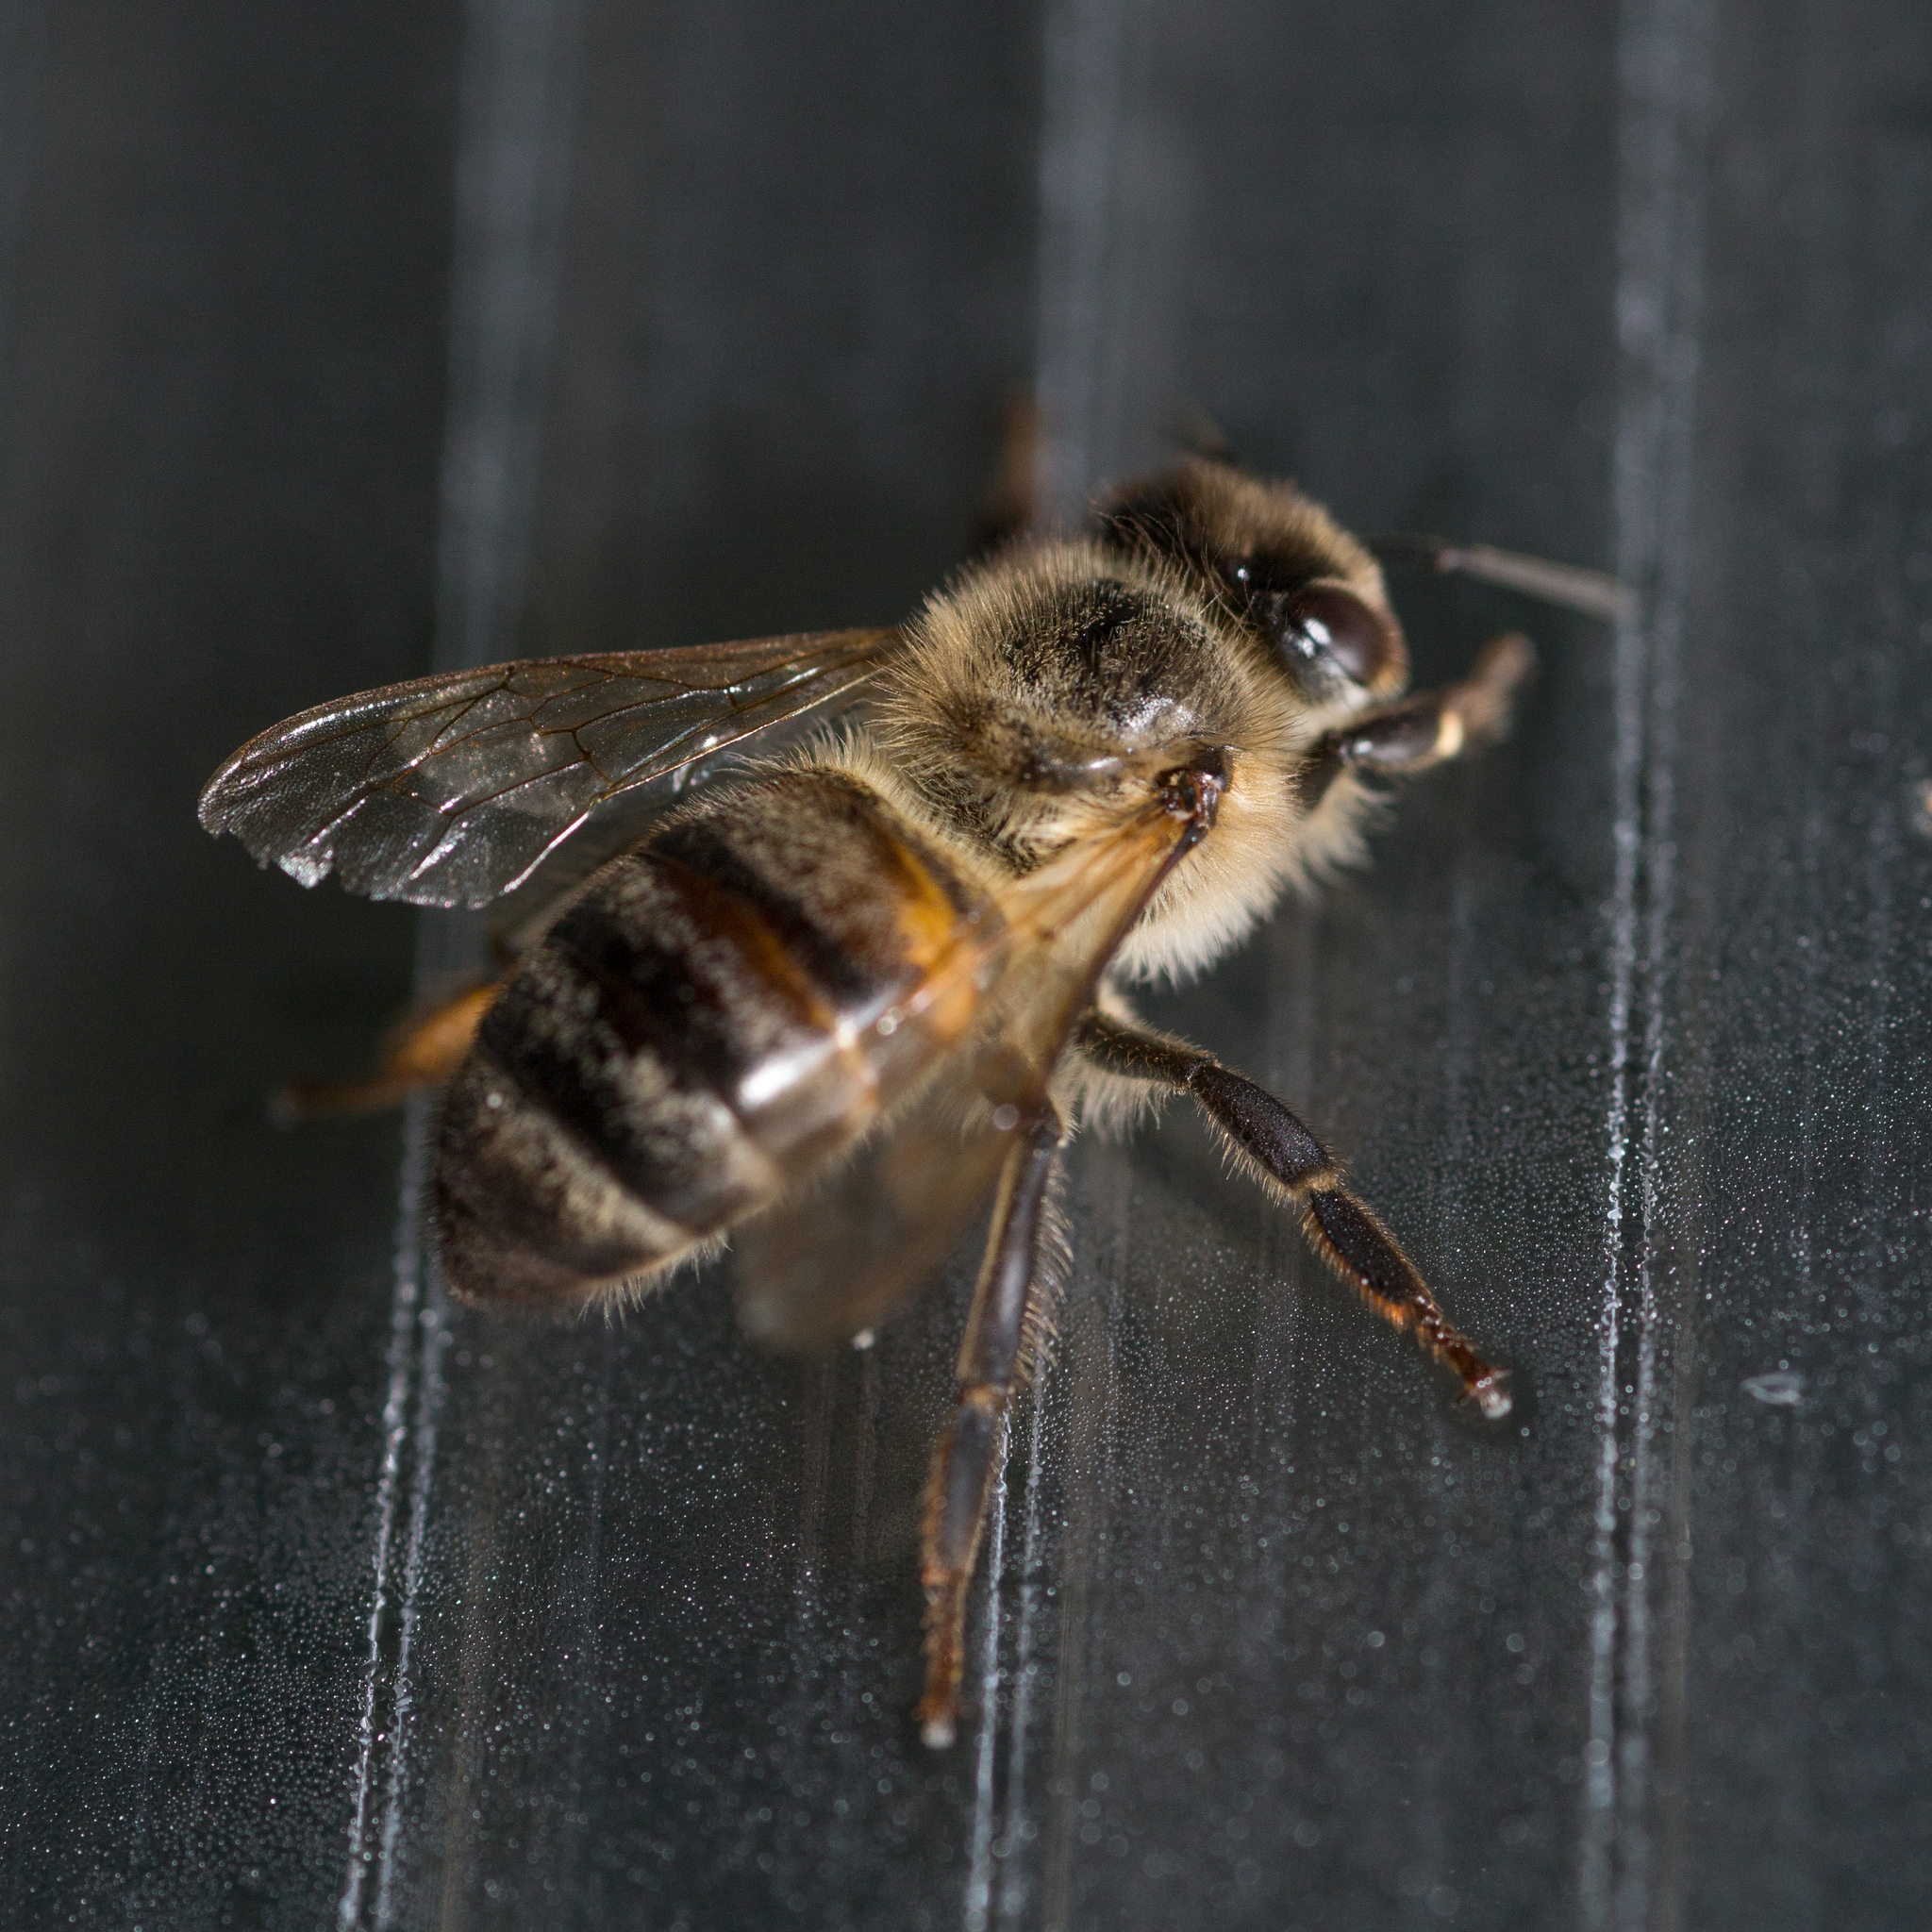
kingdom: Animalia
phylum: Arthropoda
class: Insecta
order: Hymenoptera
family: Apidae
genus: Apis
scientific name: Apis mellifera
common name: Honey bee
